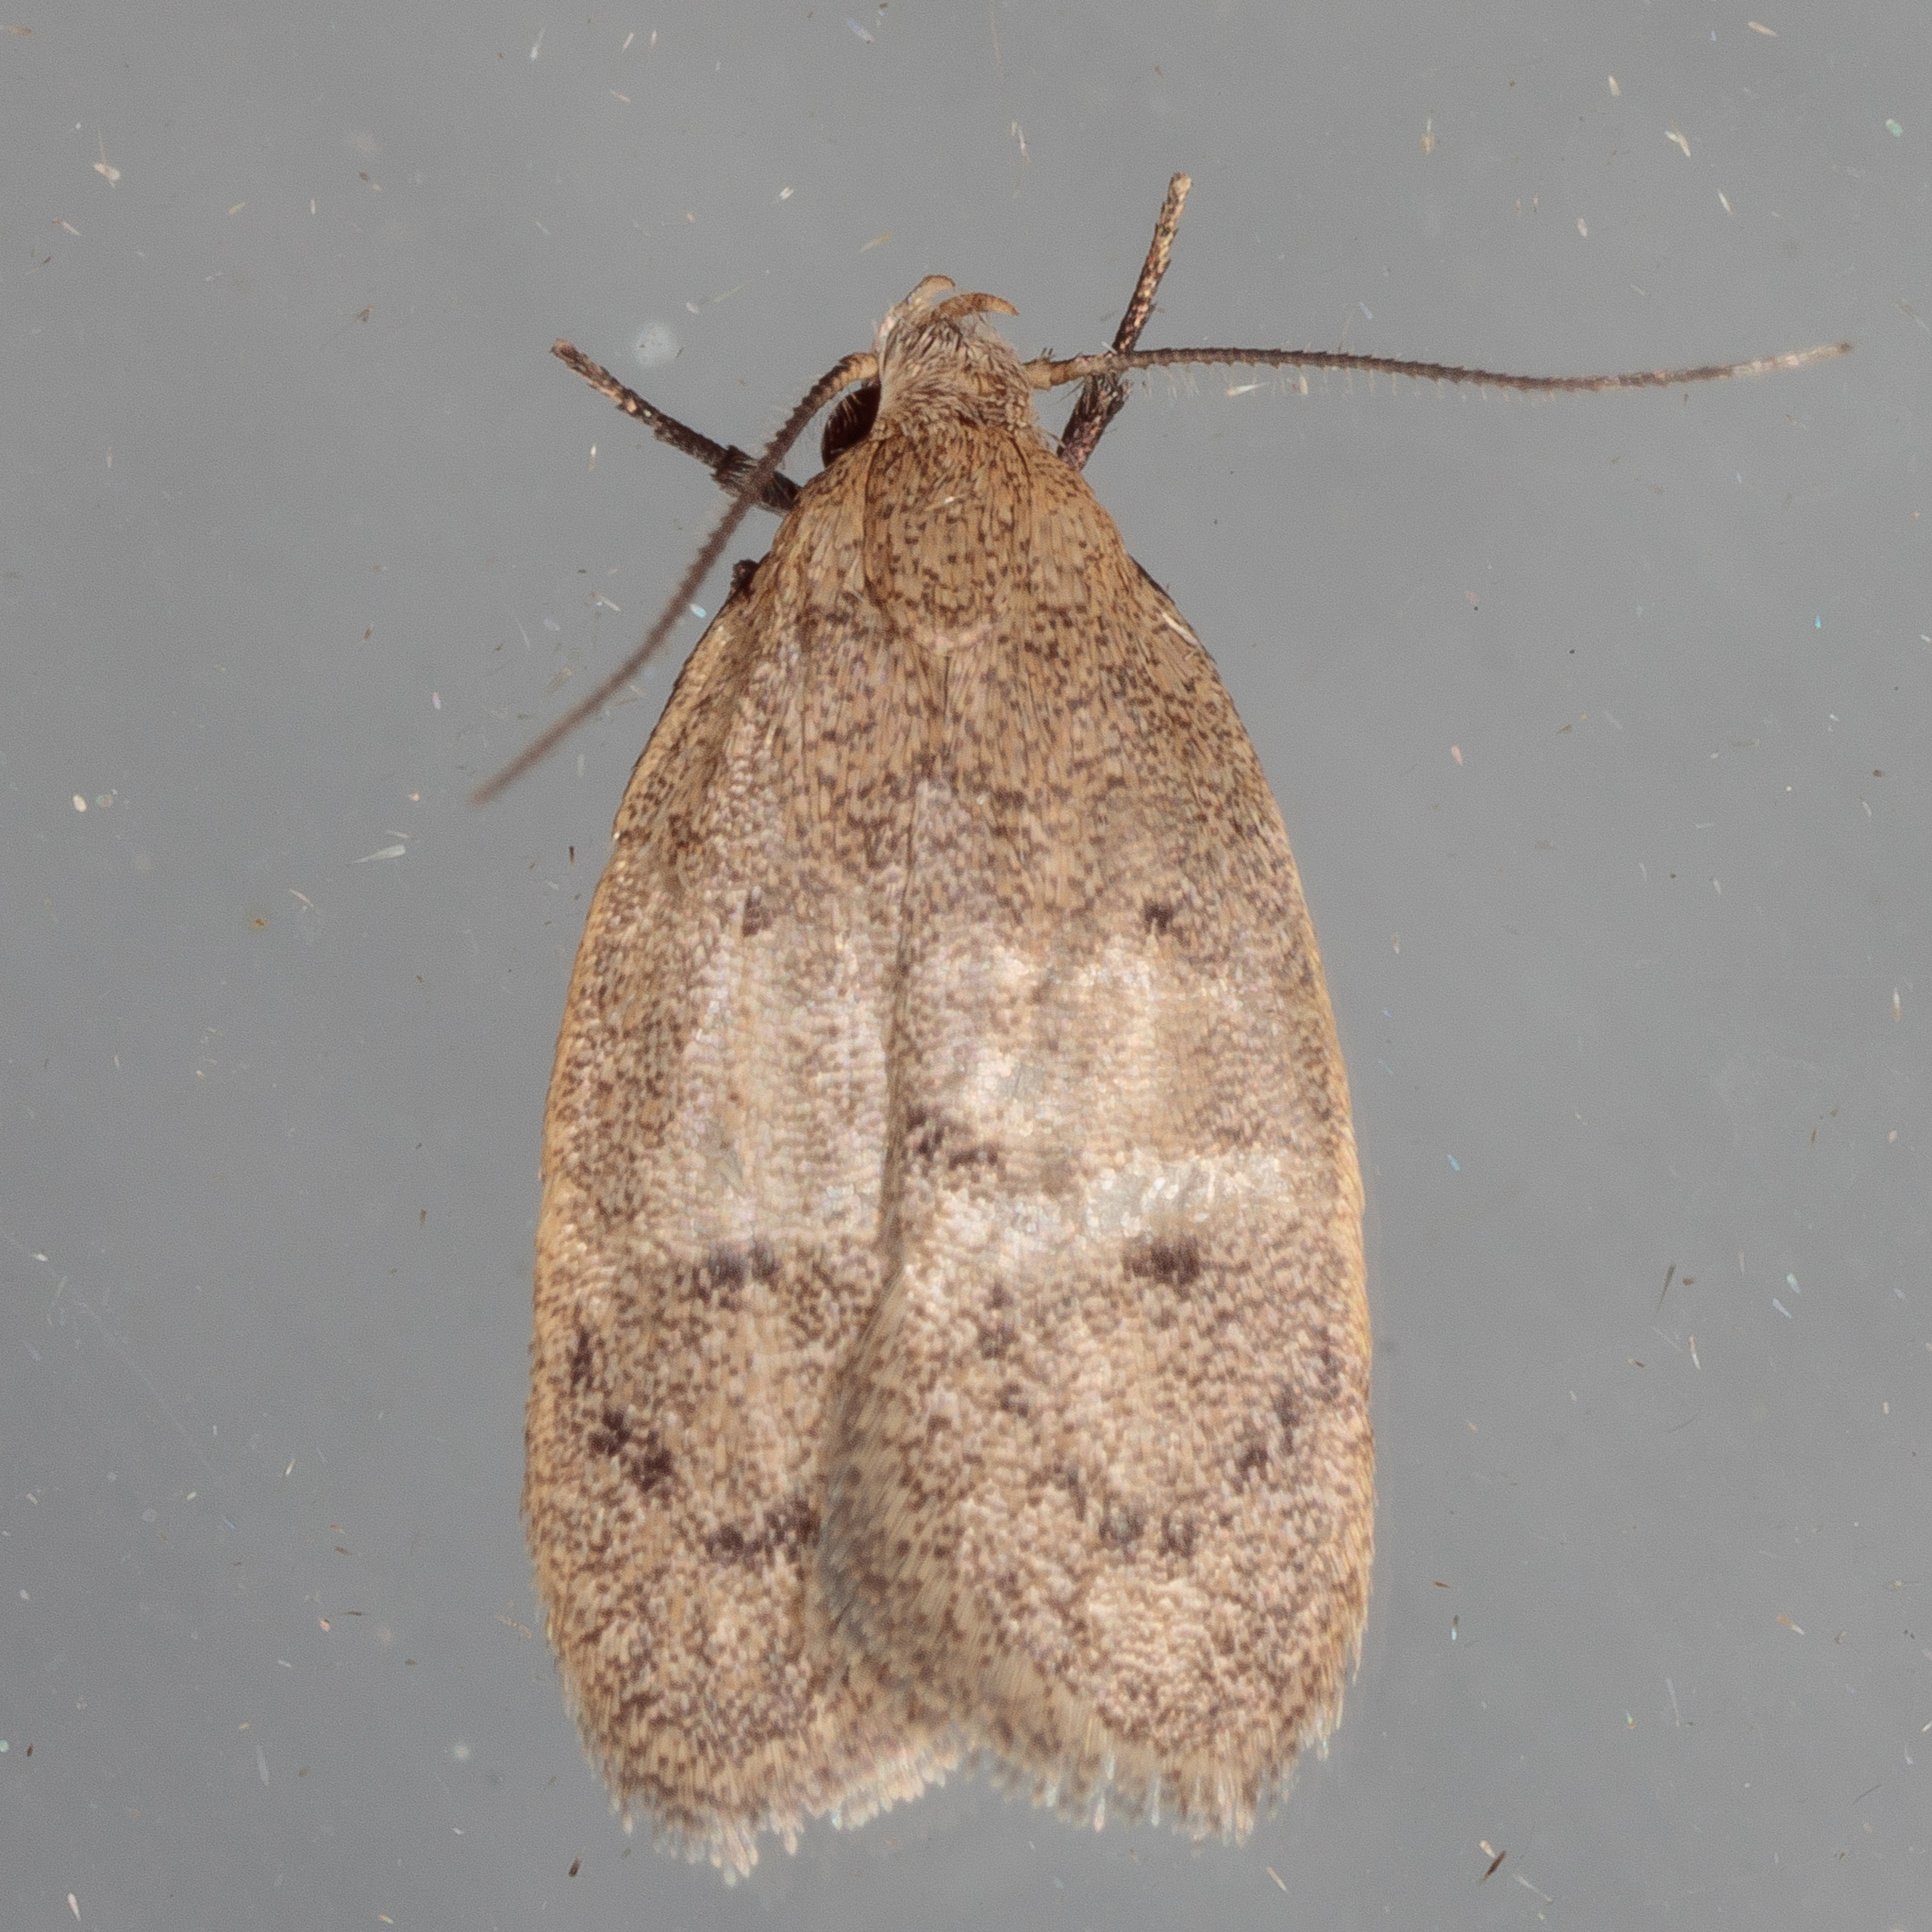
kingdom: Animalia
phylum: Arthropoda
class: Insecta
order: Lepidoptera
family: Oecophoridae
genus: Inga
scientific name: Inga obscuromaculella
